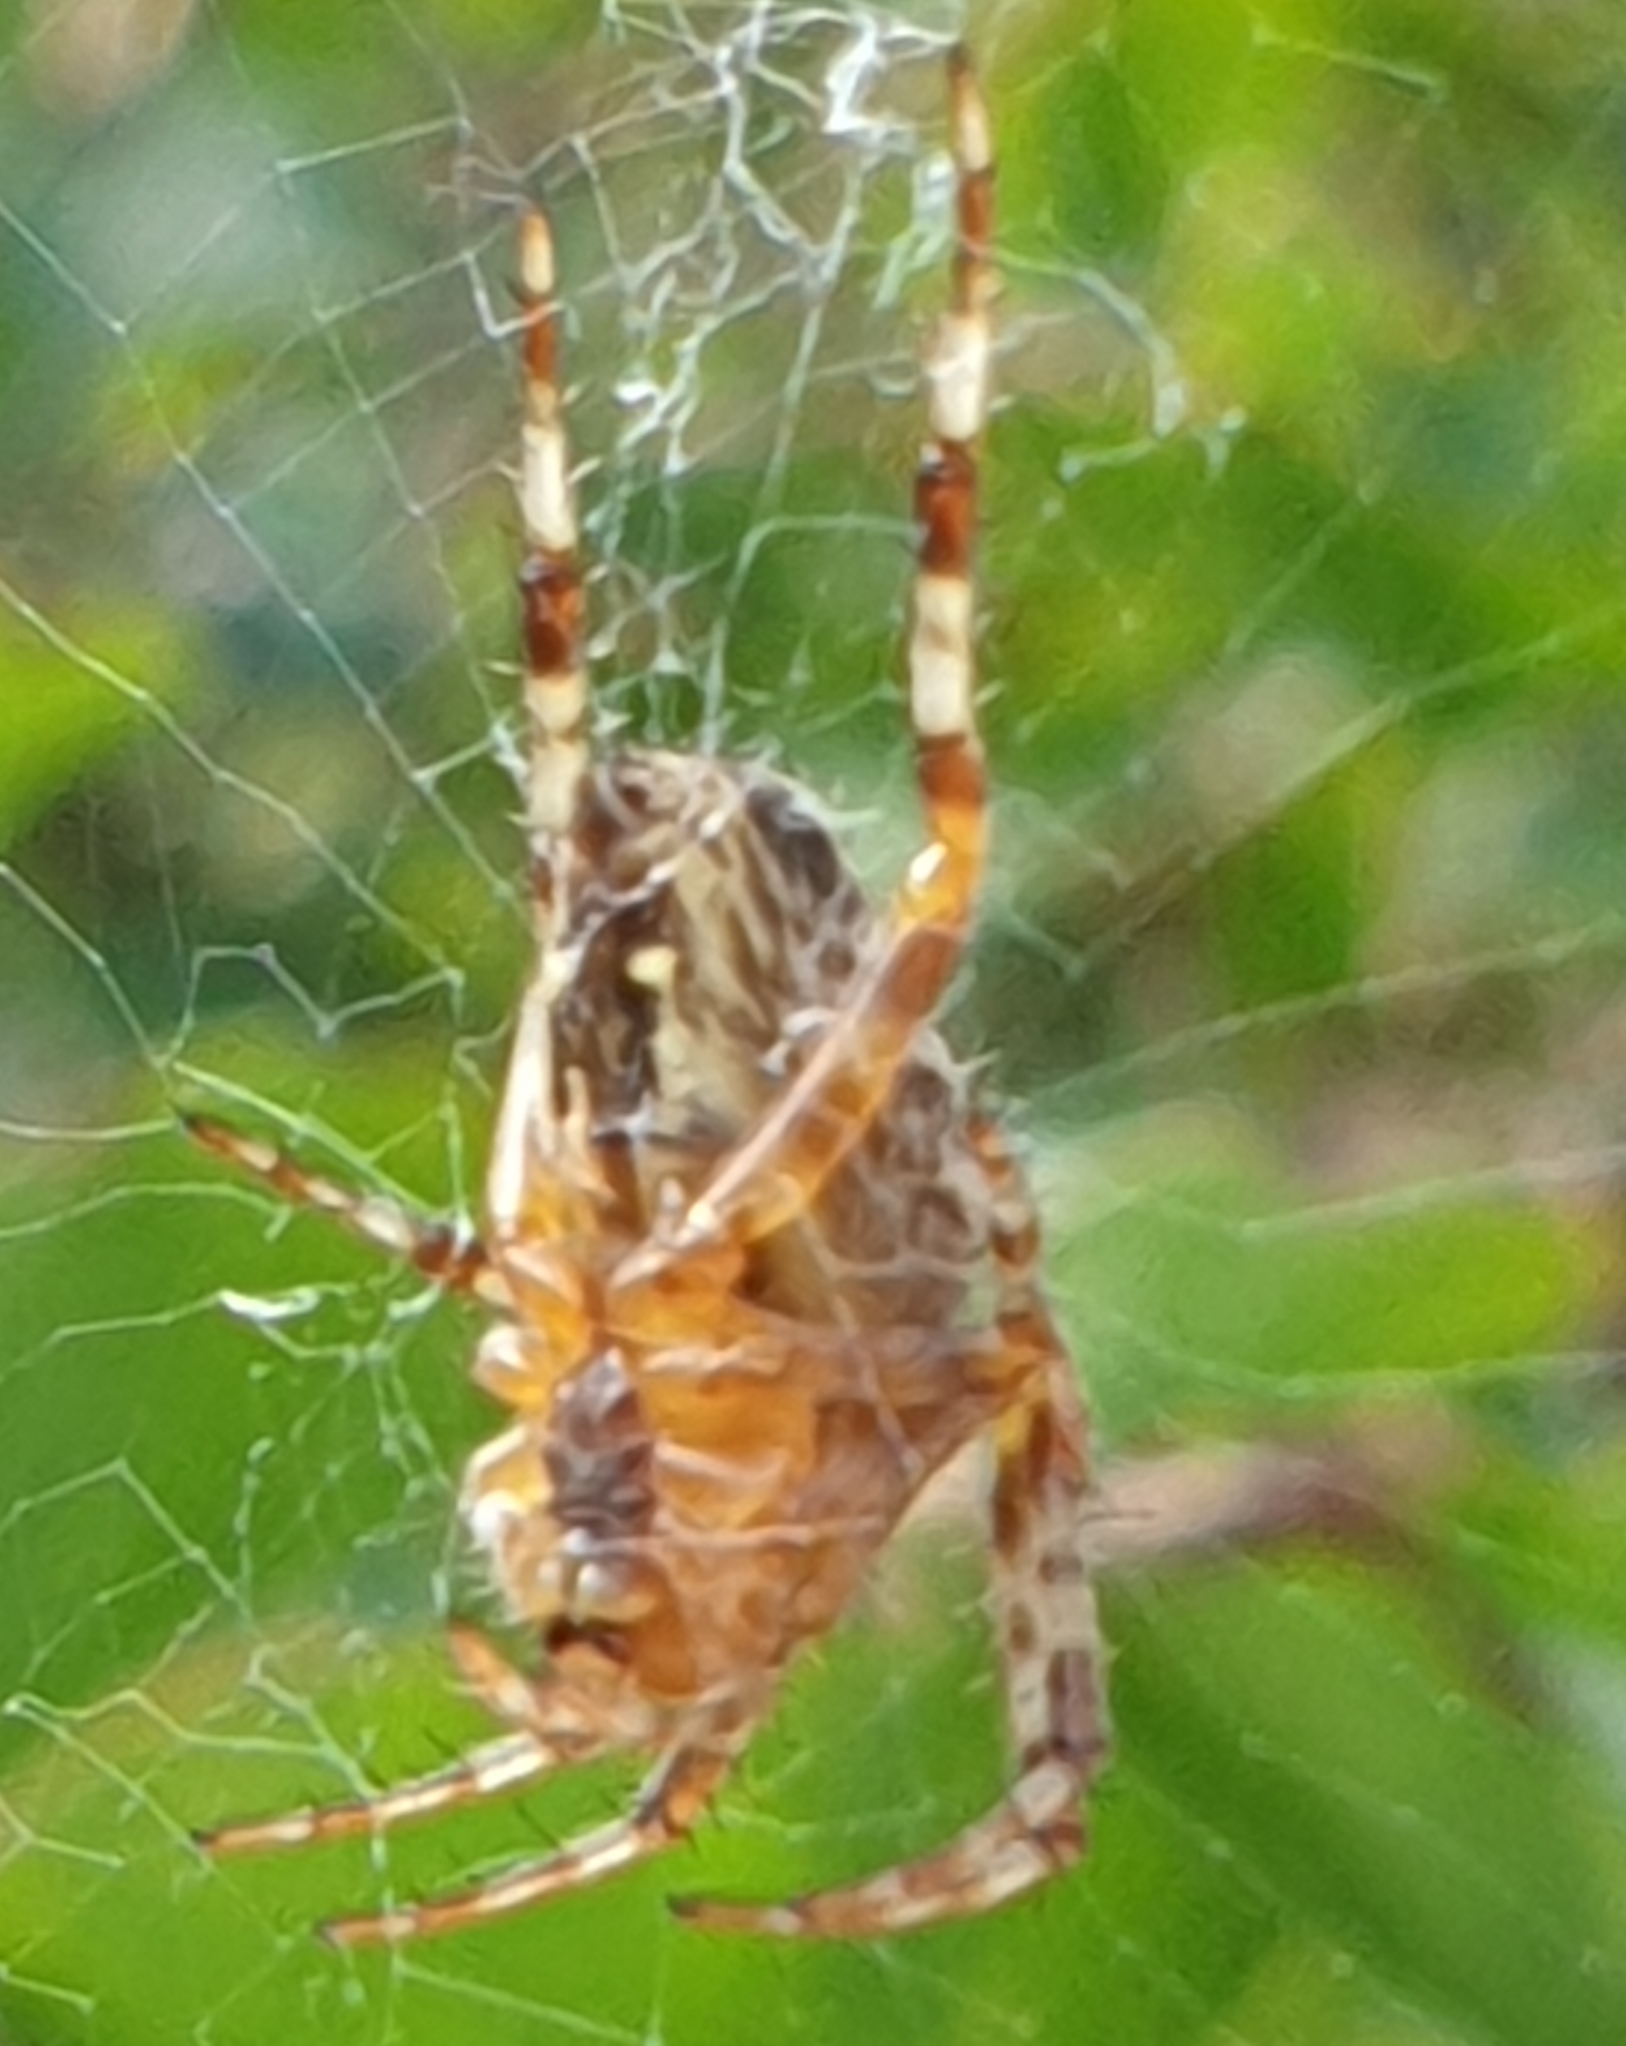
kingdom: Animalia
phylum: Arthropoda
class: Arachnida
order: Araneae
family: Araneidae
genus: Araneus
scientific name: Araneus diadematus
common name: Cross orbweaver
